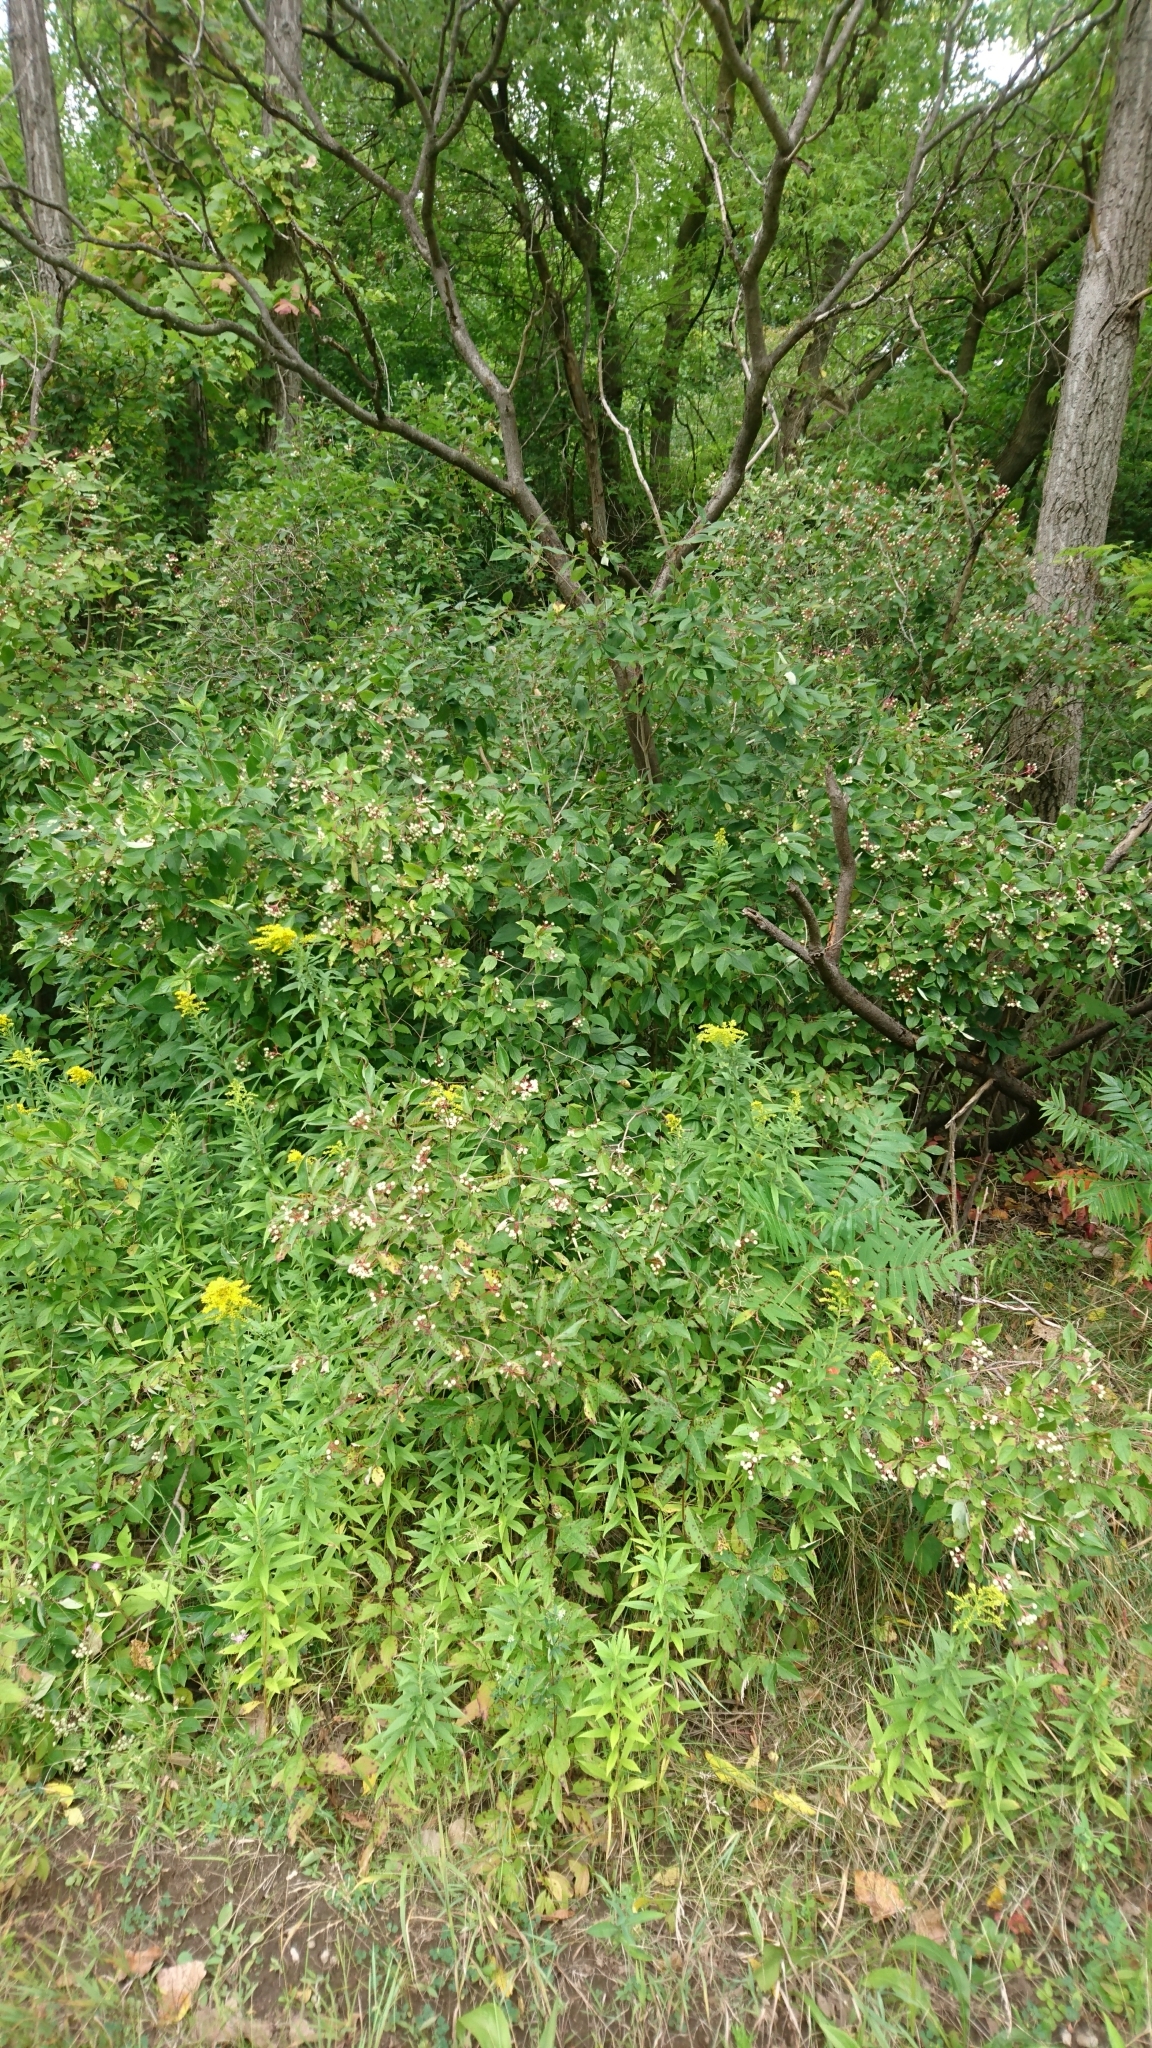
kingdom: Plantae
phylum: Tracheophyta
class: Magnoliopsida
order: Cornales
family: Cornaceae
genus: Cornus
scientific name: Cornus racemosa
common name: Panicled dogwood
